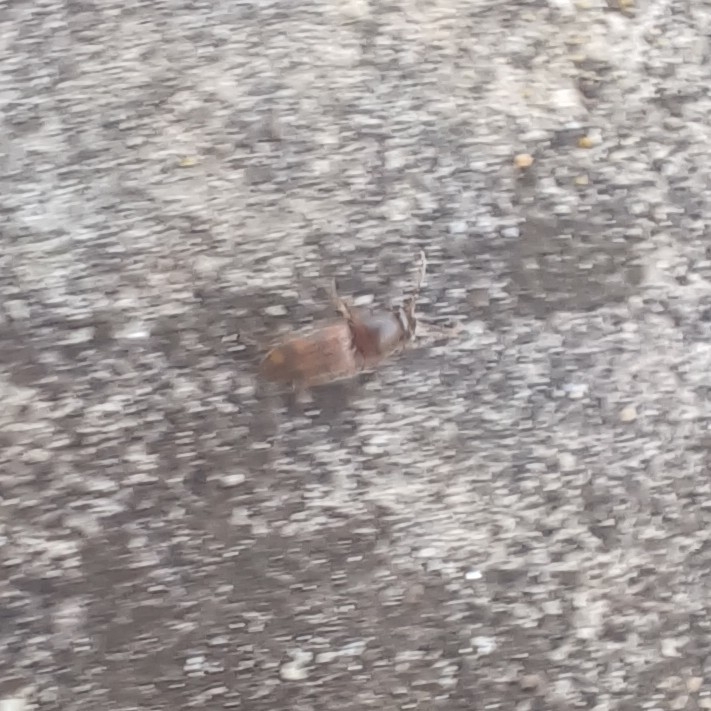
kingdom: Animalia
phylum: Arthropoda
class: Insecta
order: Coleoptera
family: Elateridae
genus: Monocrepidius
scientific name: Monocrepidius bellus
